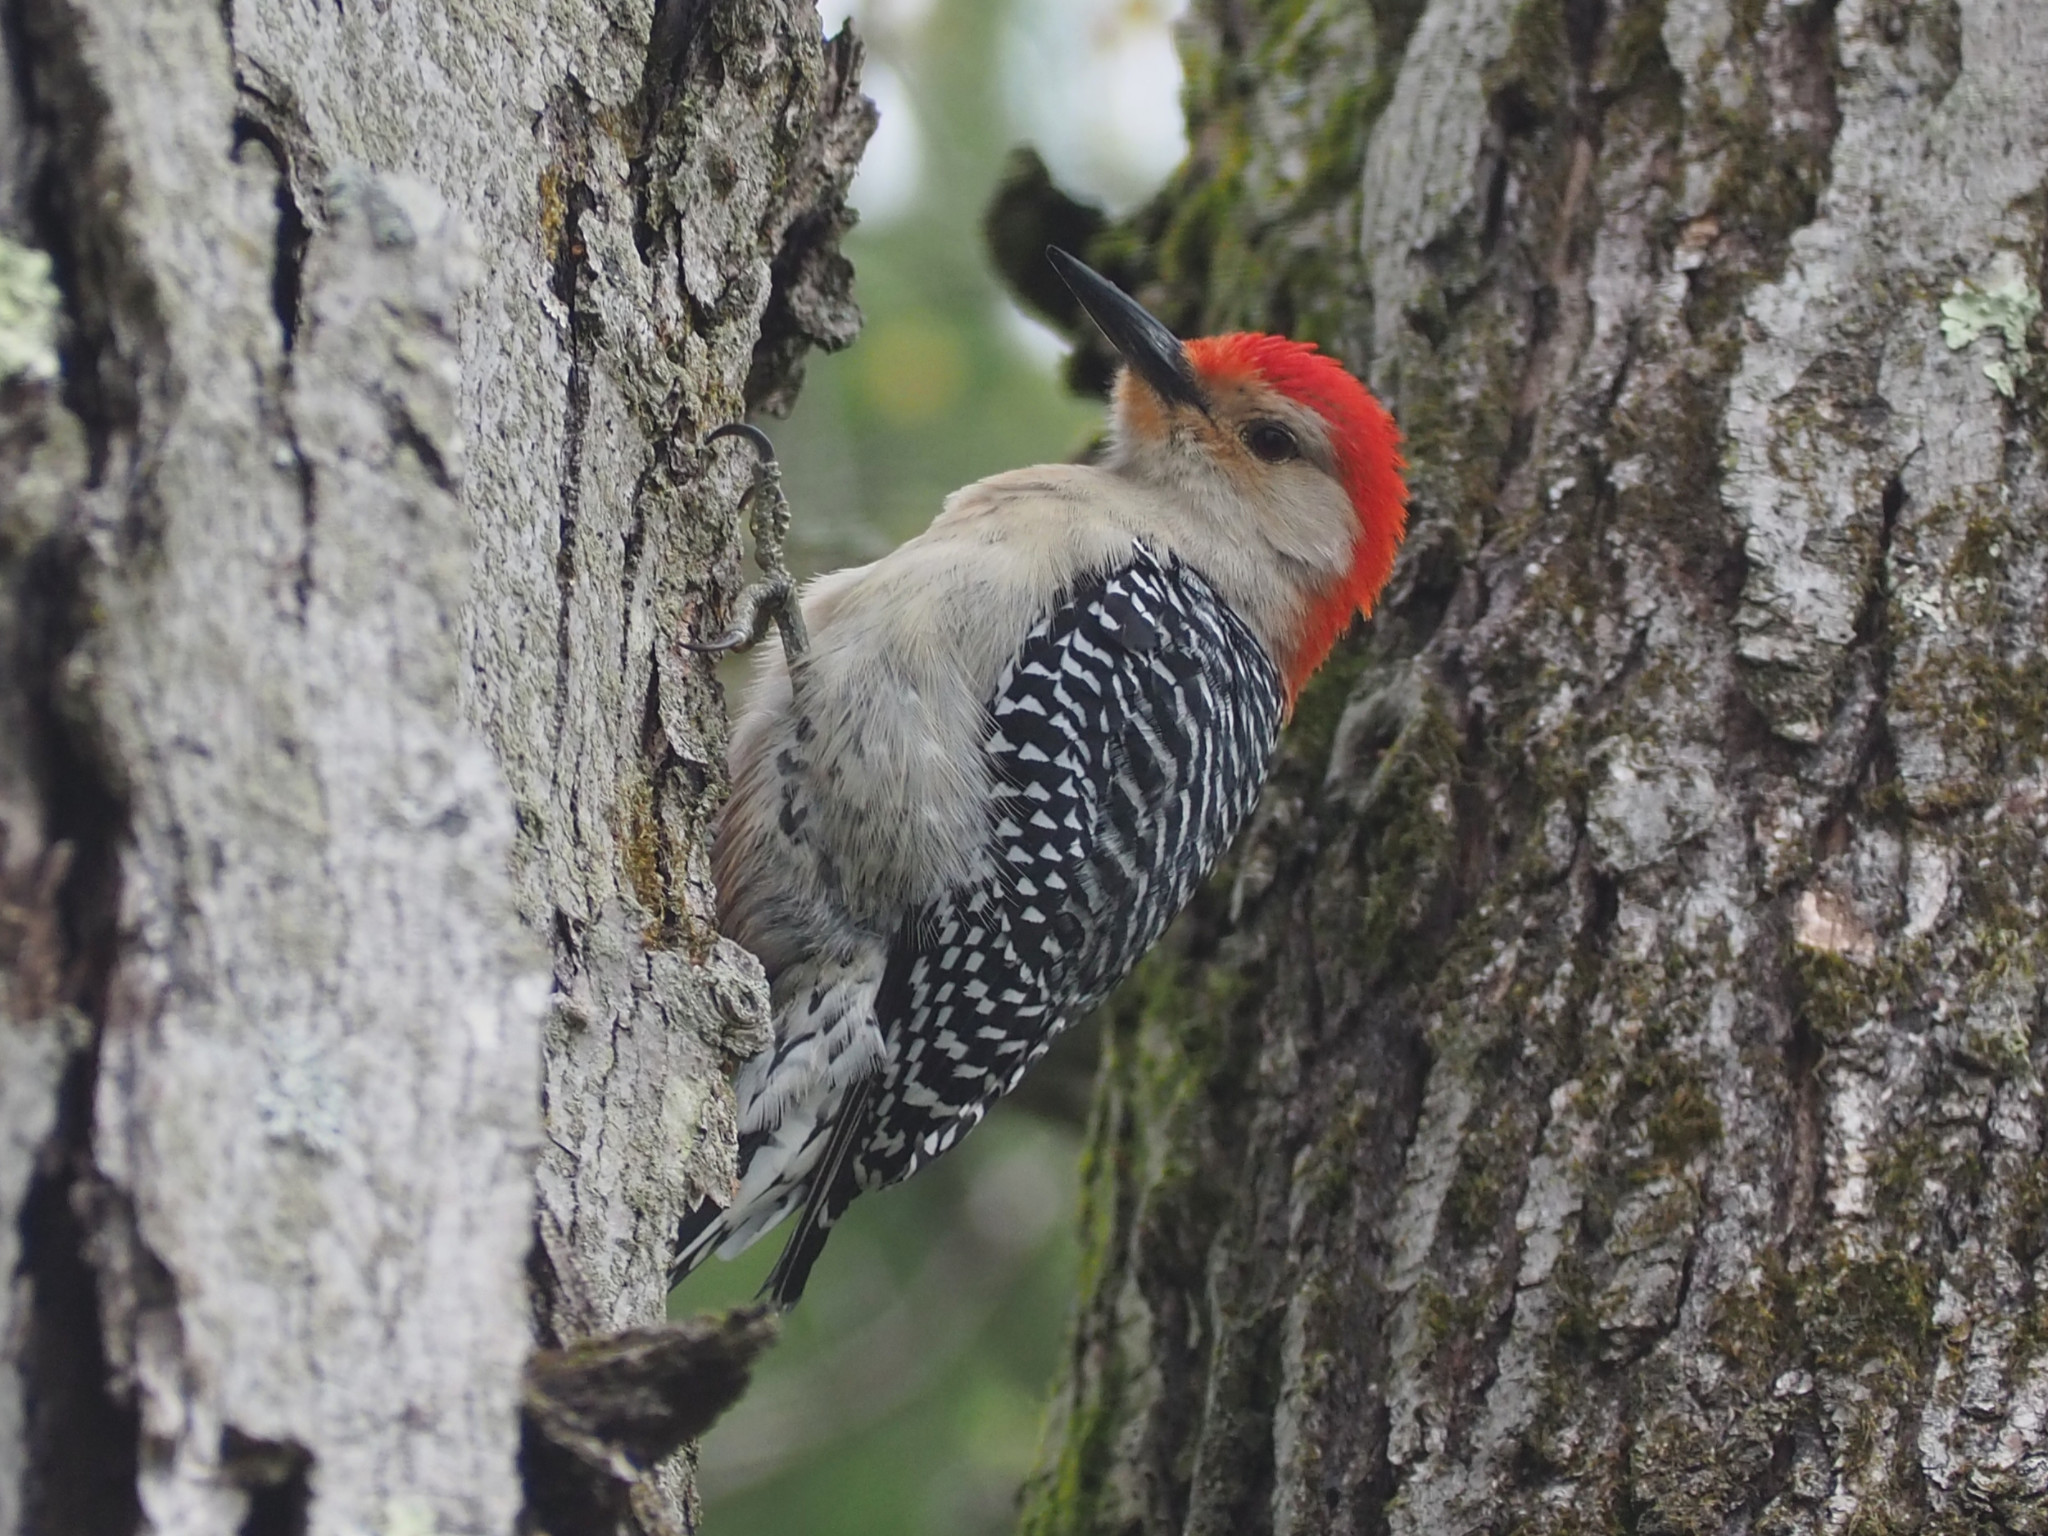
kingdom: Animalia
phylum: Chordata
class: Aves
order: Piciformes
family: Picidae
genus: Melanerpes
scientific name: Melanerpes carolinus
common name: Red-bellied woodpecker
